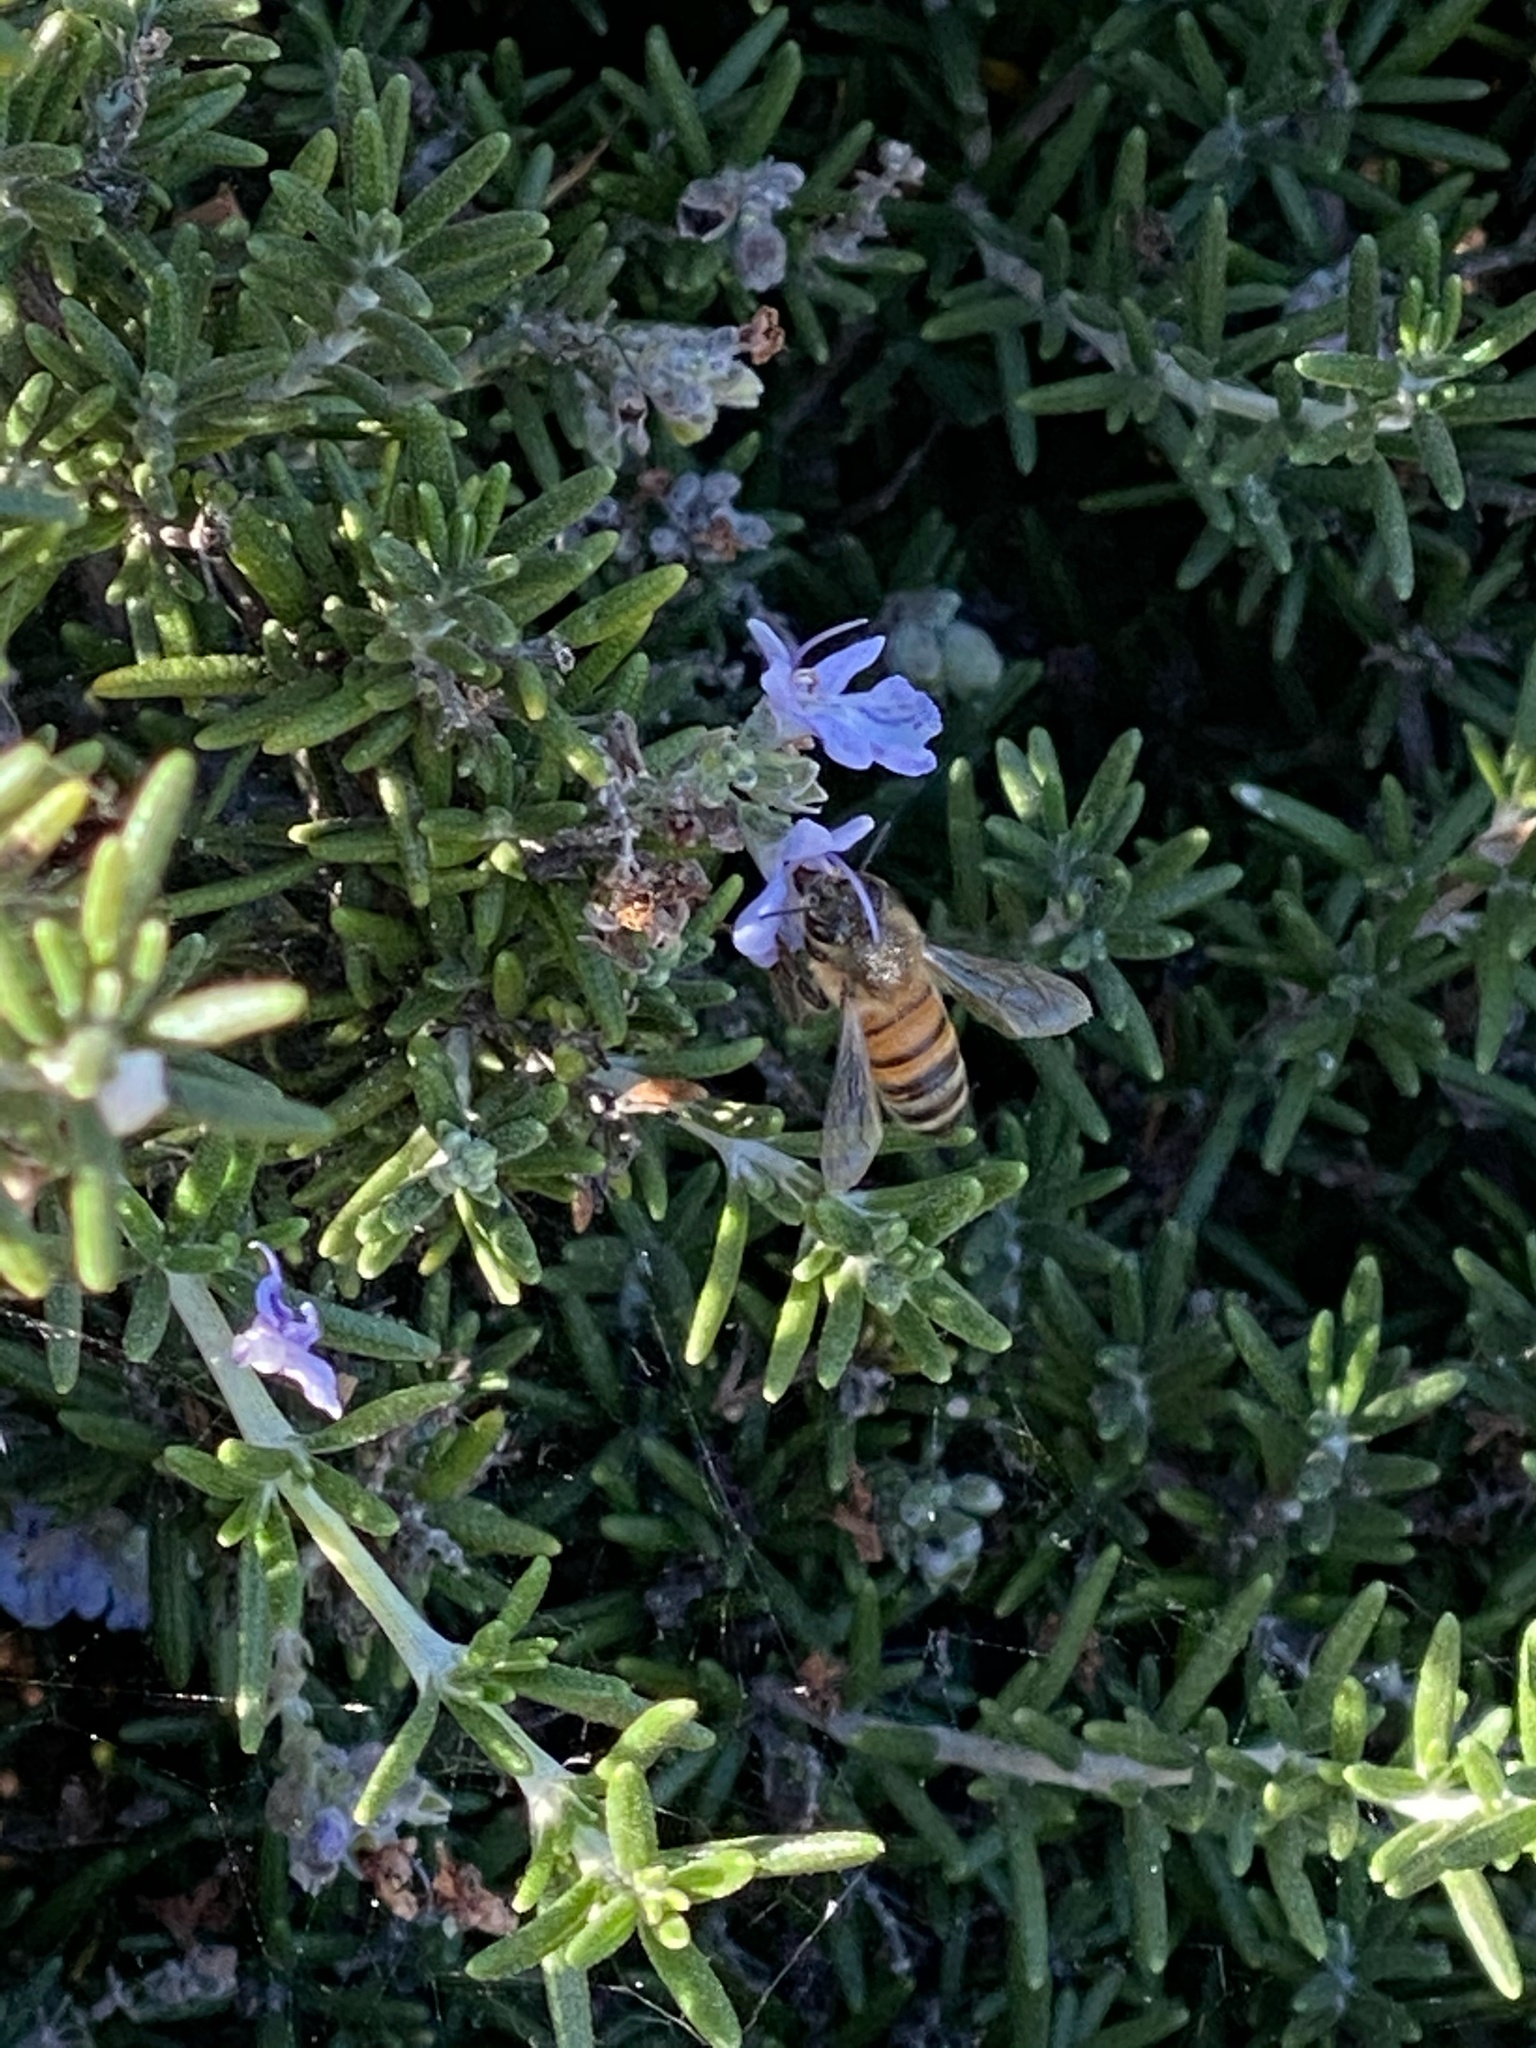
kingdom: Animalia
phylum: Arthropoda
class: Insecta
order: Hymenoptera
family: Apidae
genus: Apis
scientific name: Apis mellifera
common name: Honey bee
